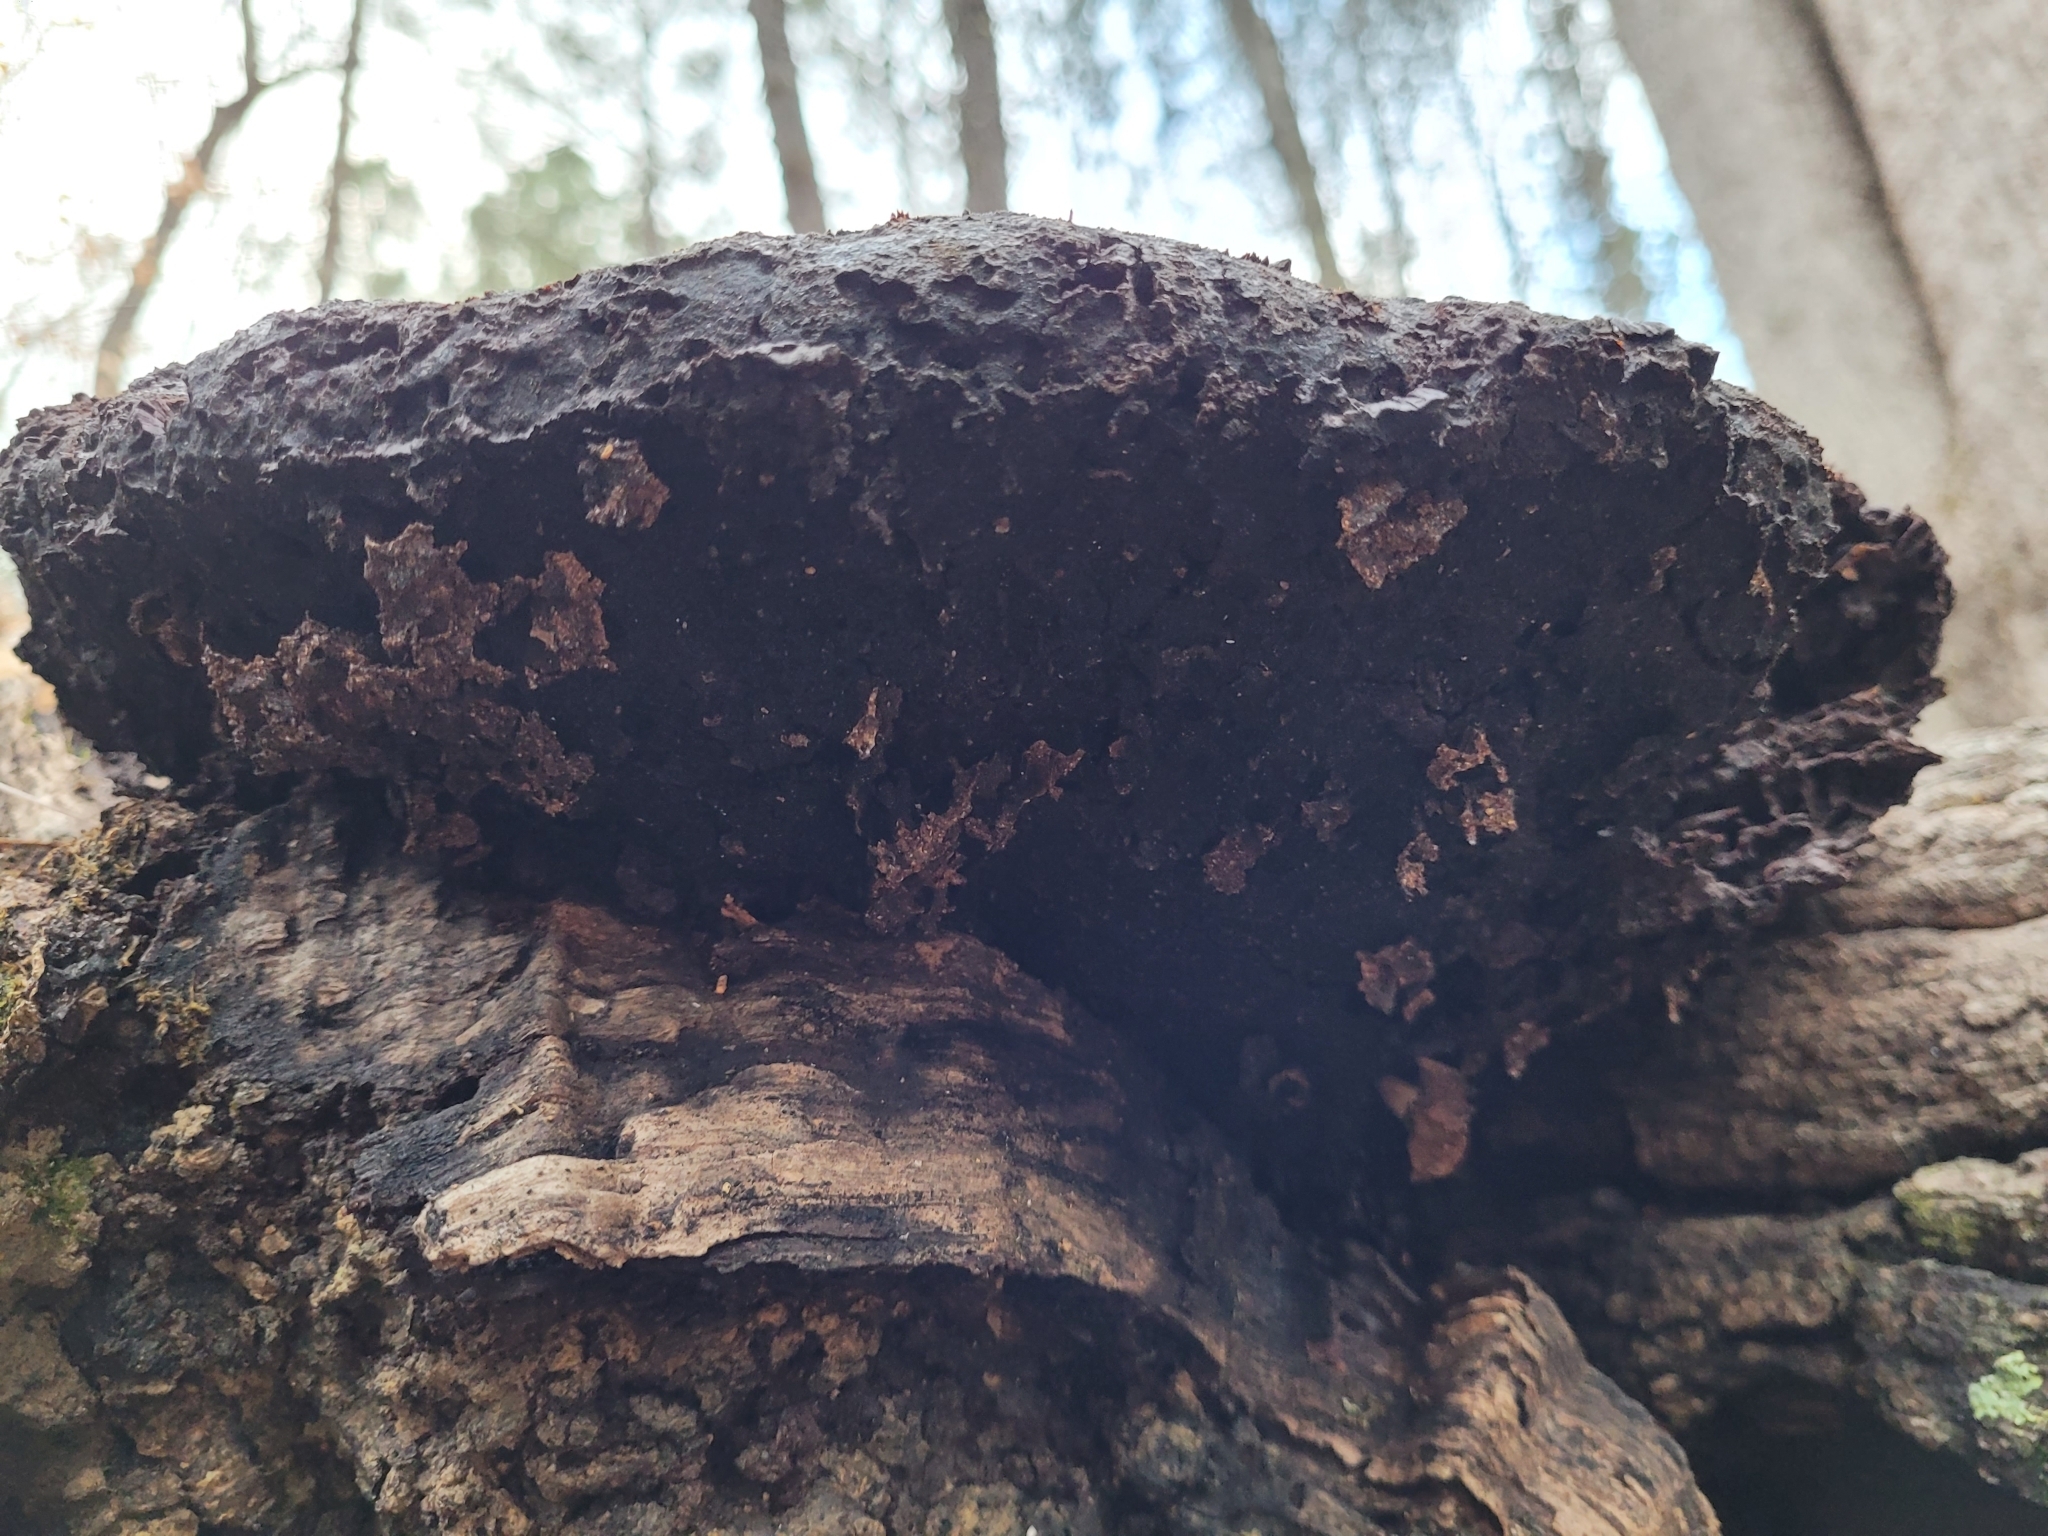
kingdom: Fungi
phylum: Basidiomycota
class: Agaricomycetes
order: Hymenochaetales
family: Hymenochaetaceae
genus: Pseudoinonotus
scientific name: Pseudoinonotus dryadeus
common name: Oak bracket
